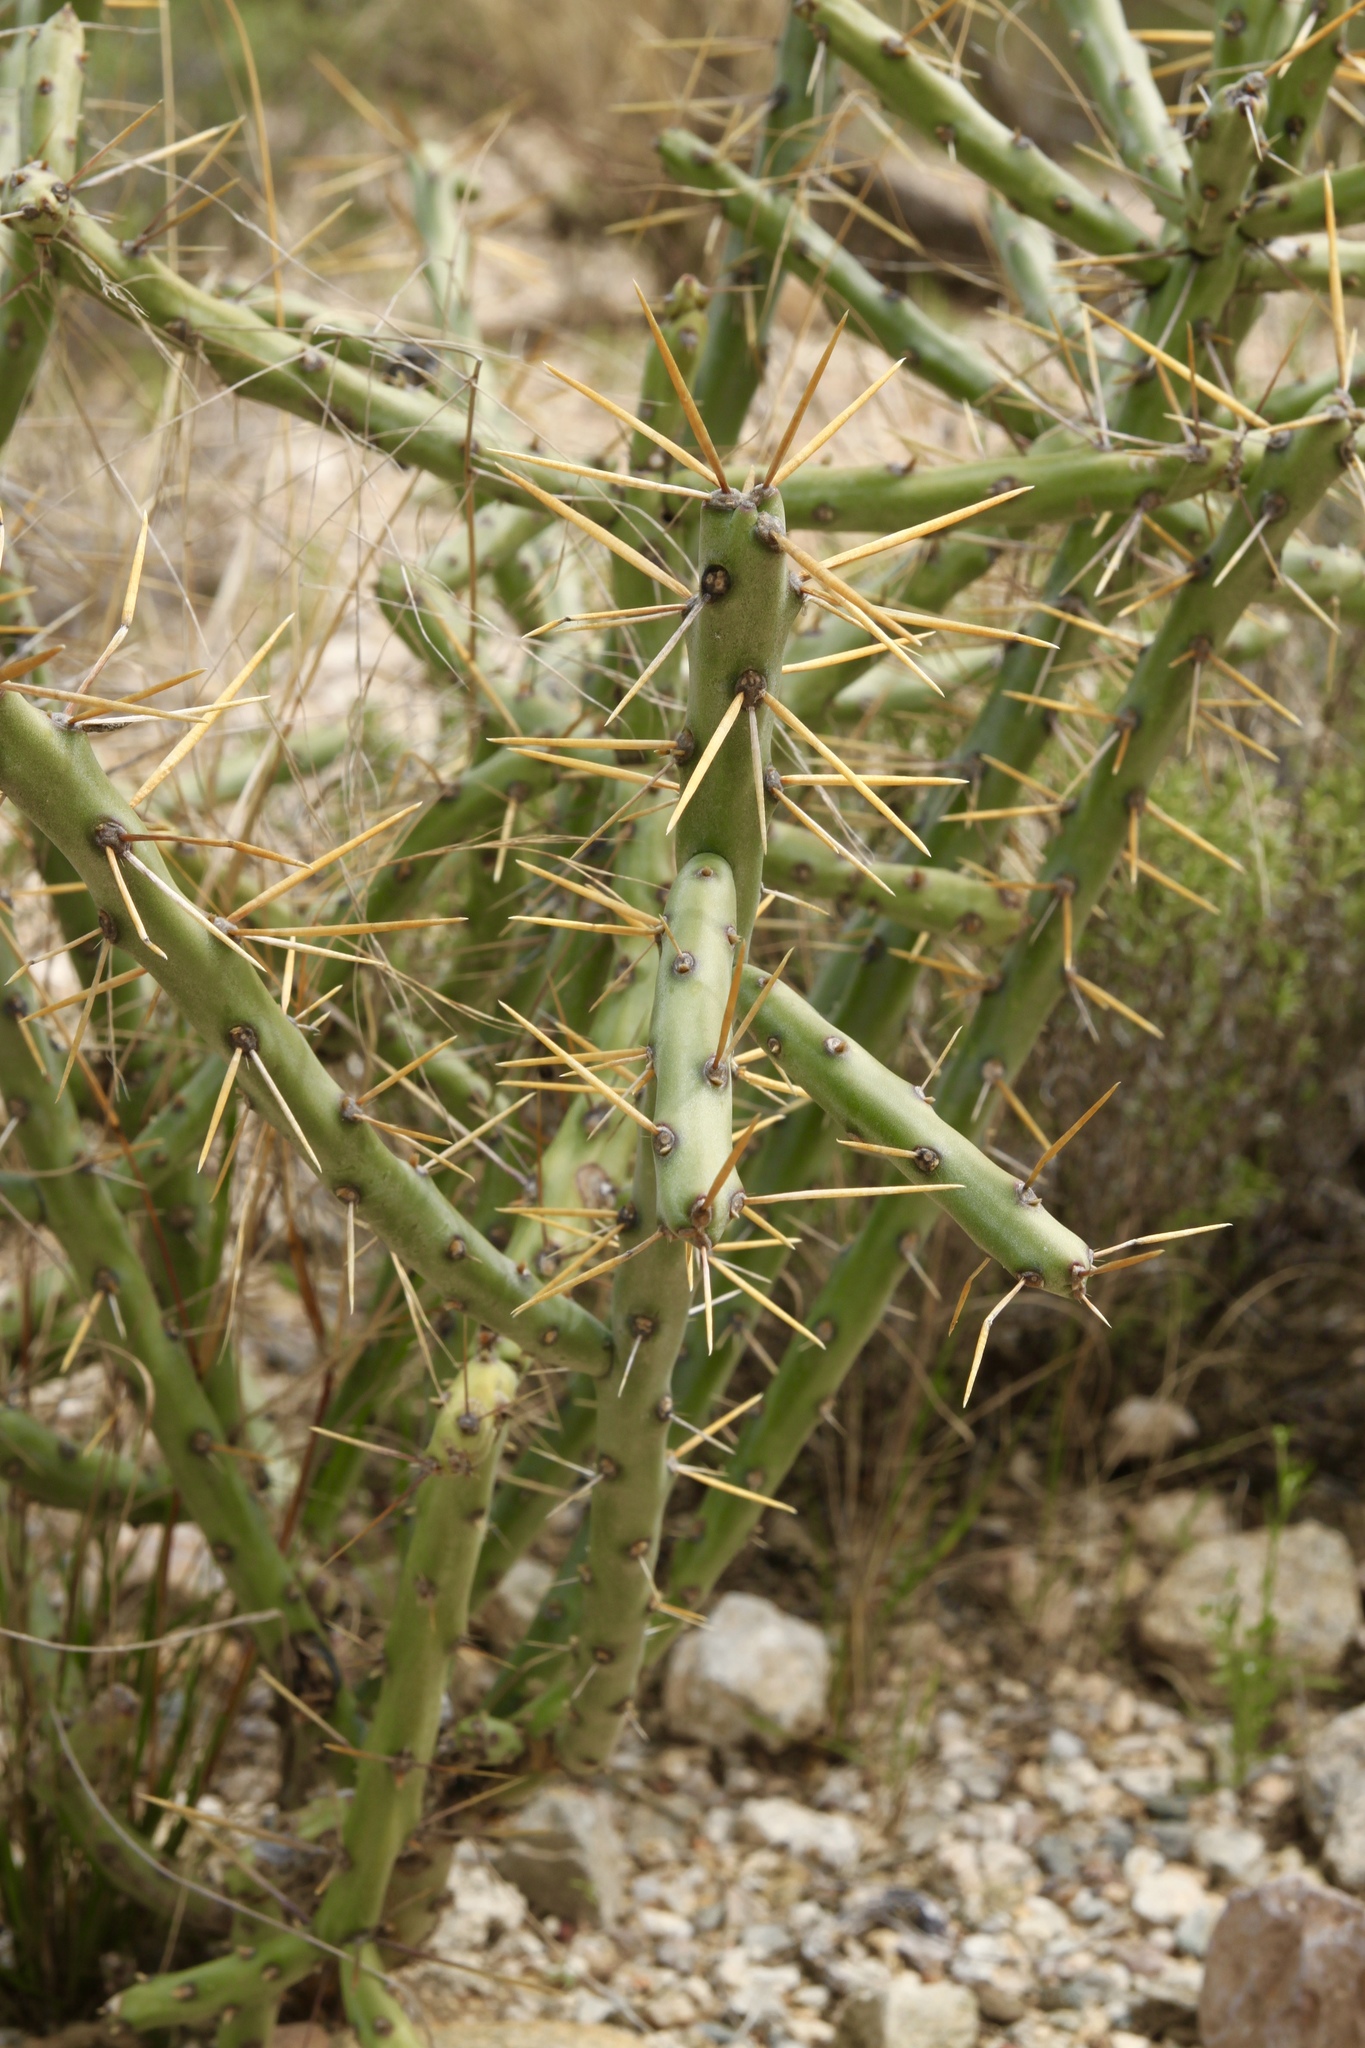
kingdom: Plantae
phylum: Tracheophyta
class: Magnoliopsida
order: Caryophyllales
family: Cactaceae
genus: Cylindropuntia
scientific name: Cylindropuntia arbuscula
